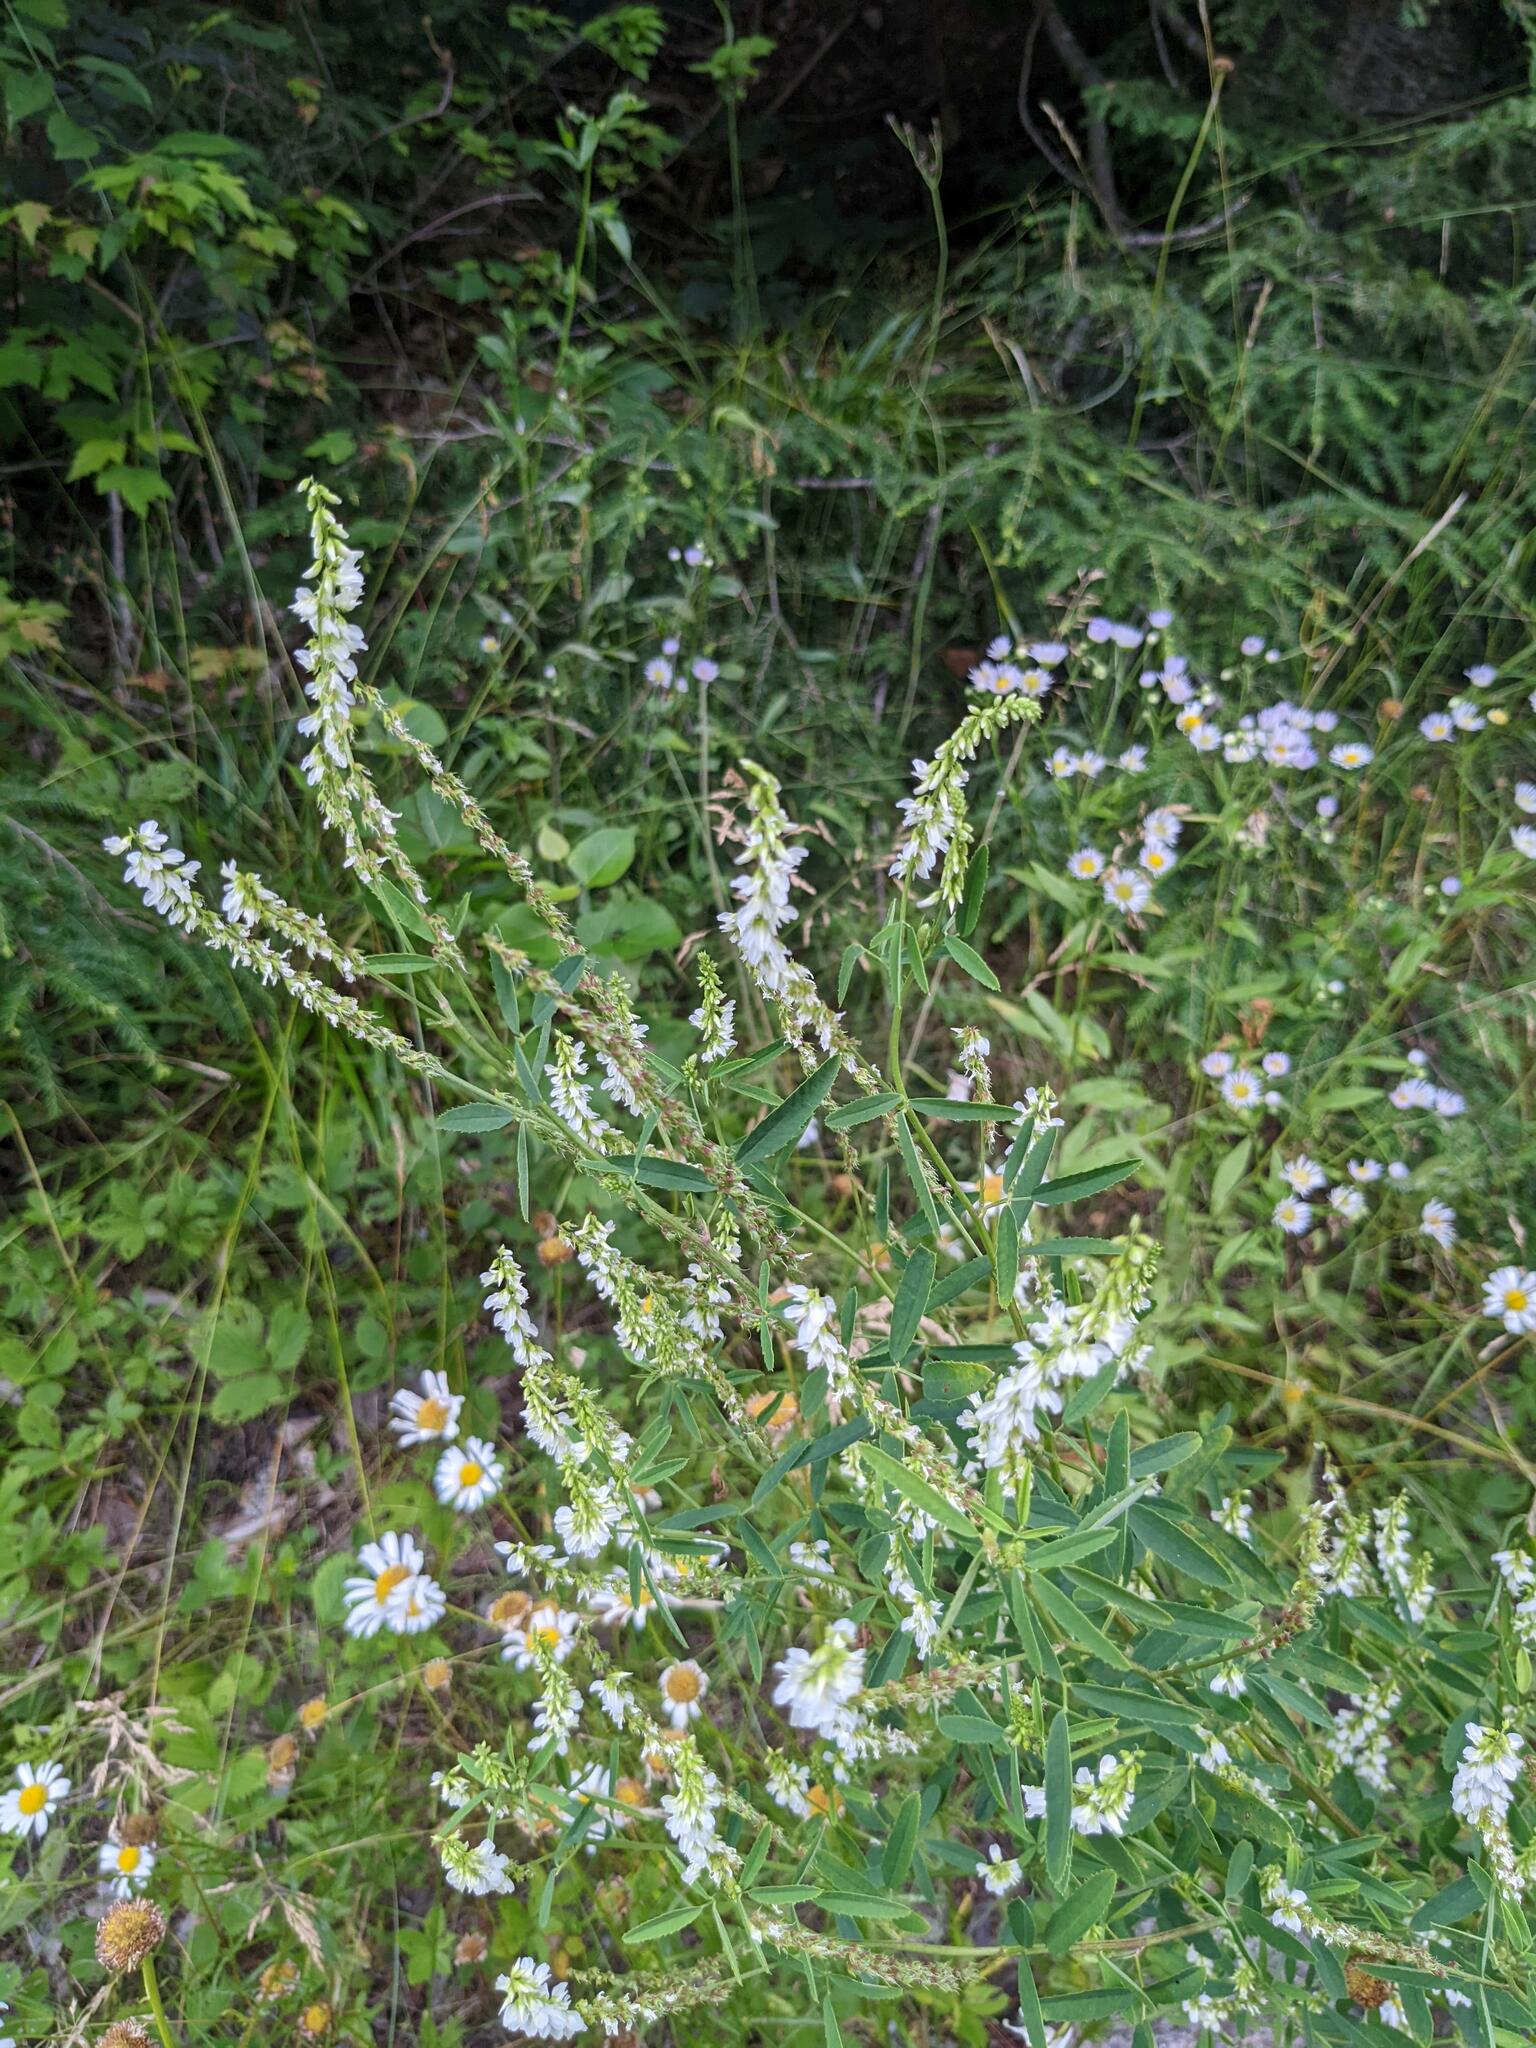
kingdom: Plantae
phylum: Tracheophyta
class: Magnoliopsida
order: Fabales
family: Fabaceae
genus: Melilotus
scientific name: Melilotus albus
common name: White melilot
